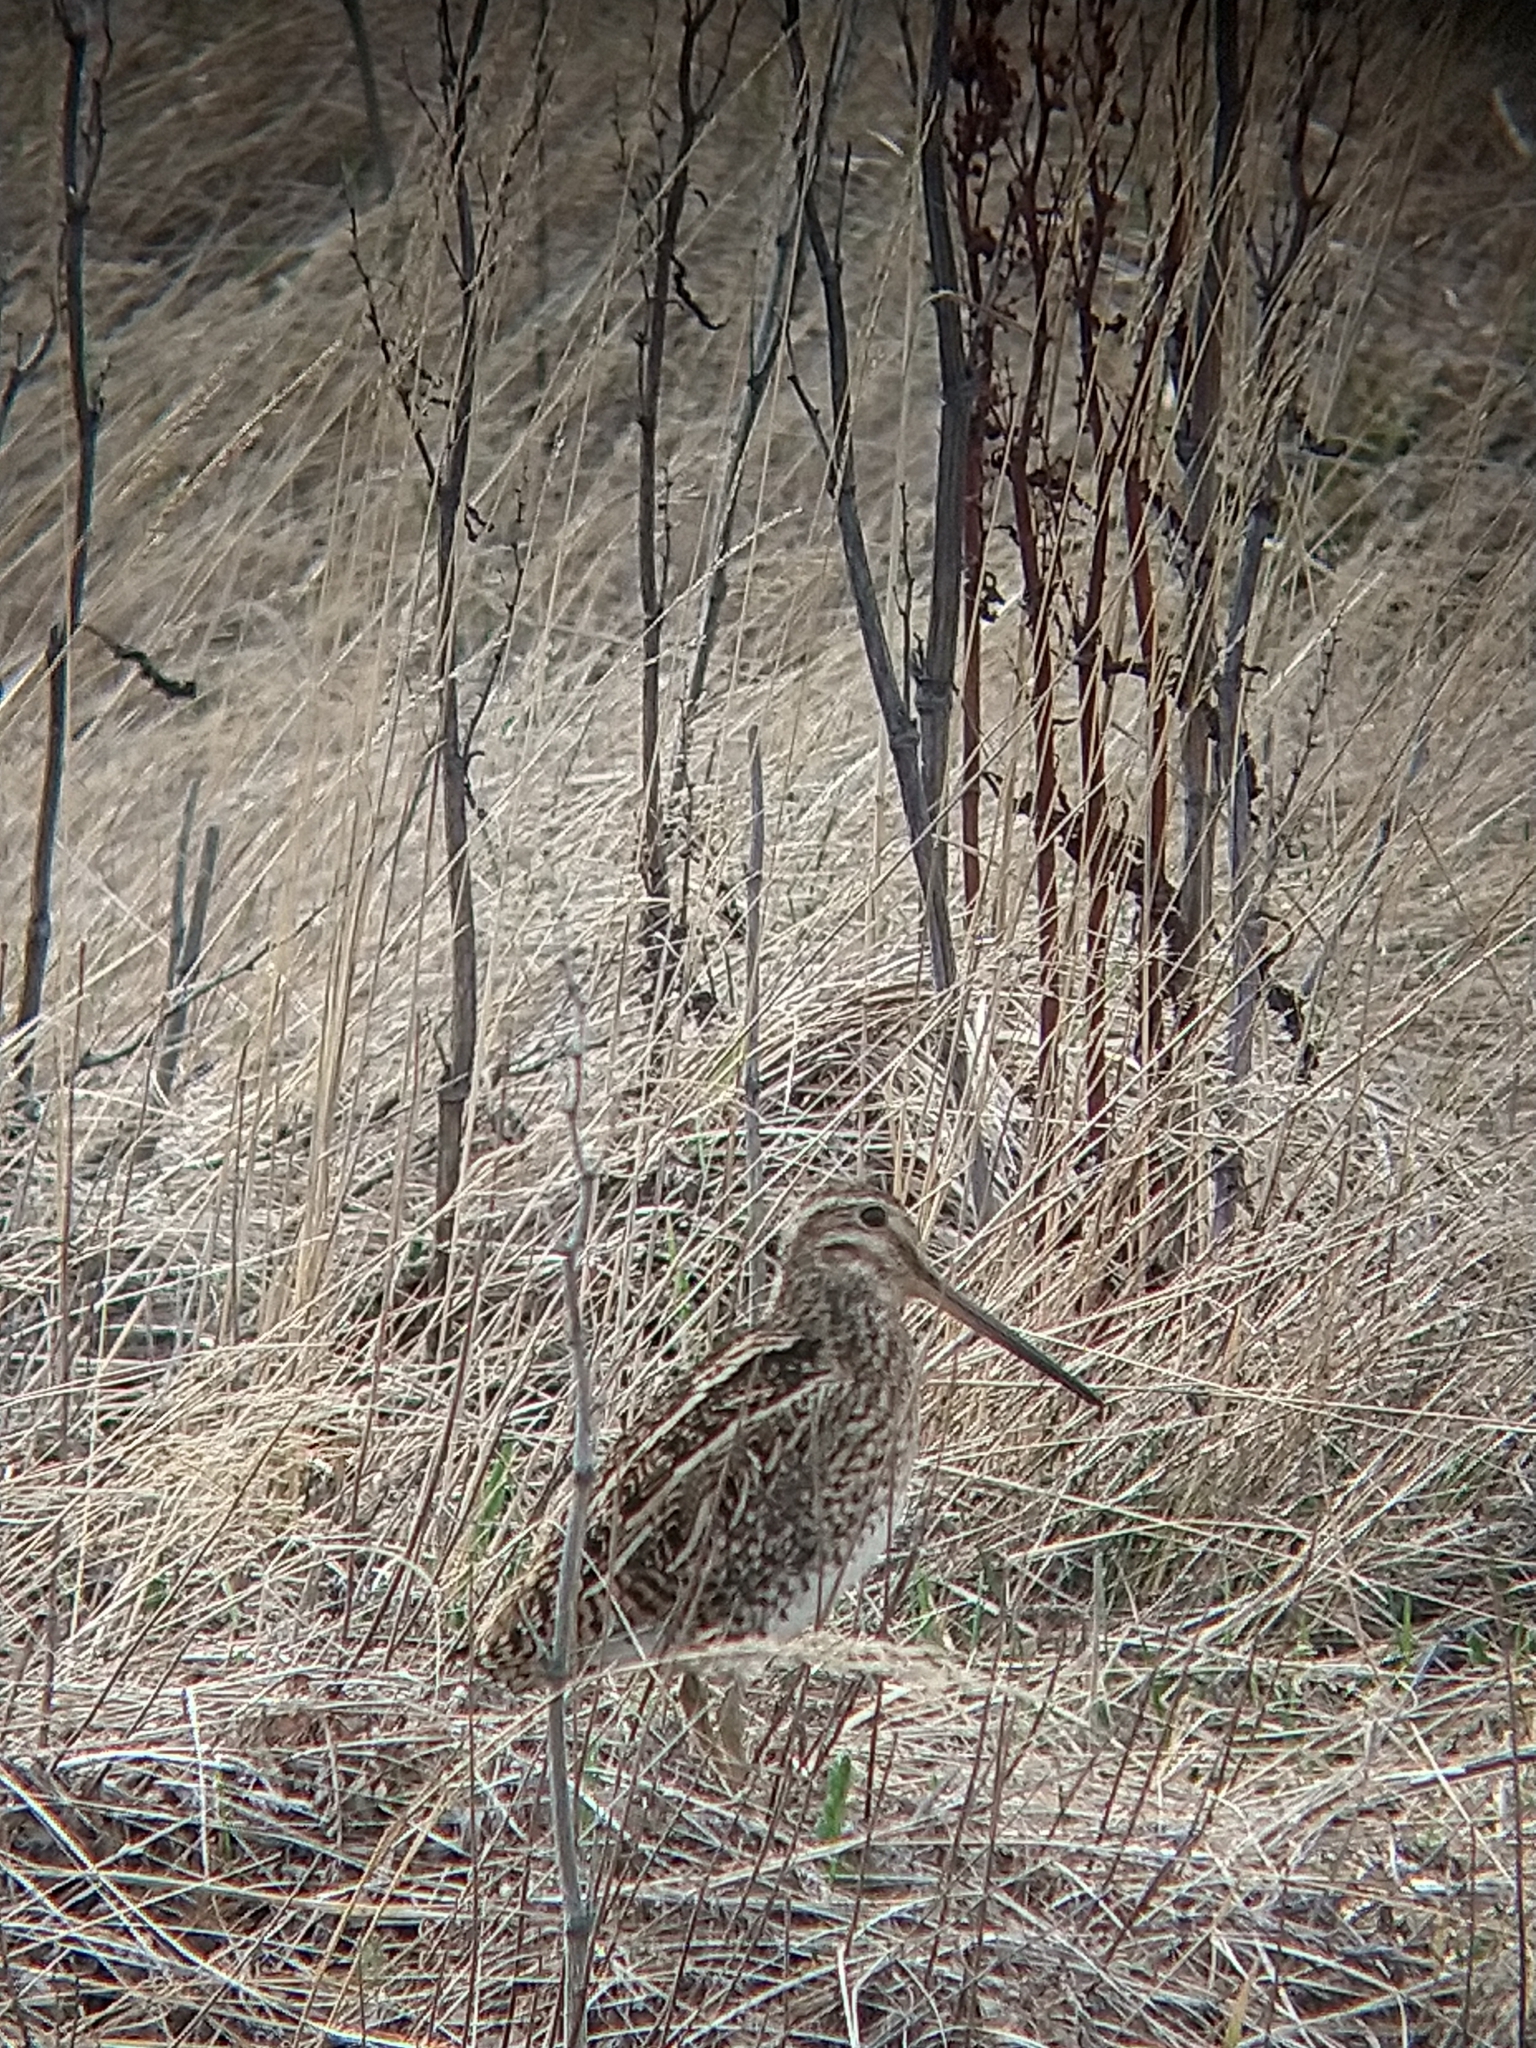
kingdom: Animalia
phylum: Chordata
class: Aves
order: Charadriiformes
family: Scolopacidae
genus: Gallinago
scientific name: Gallinago magellanica
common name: Magellanic snipe
